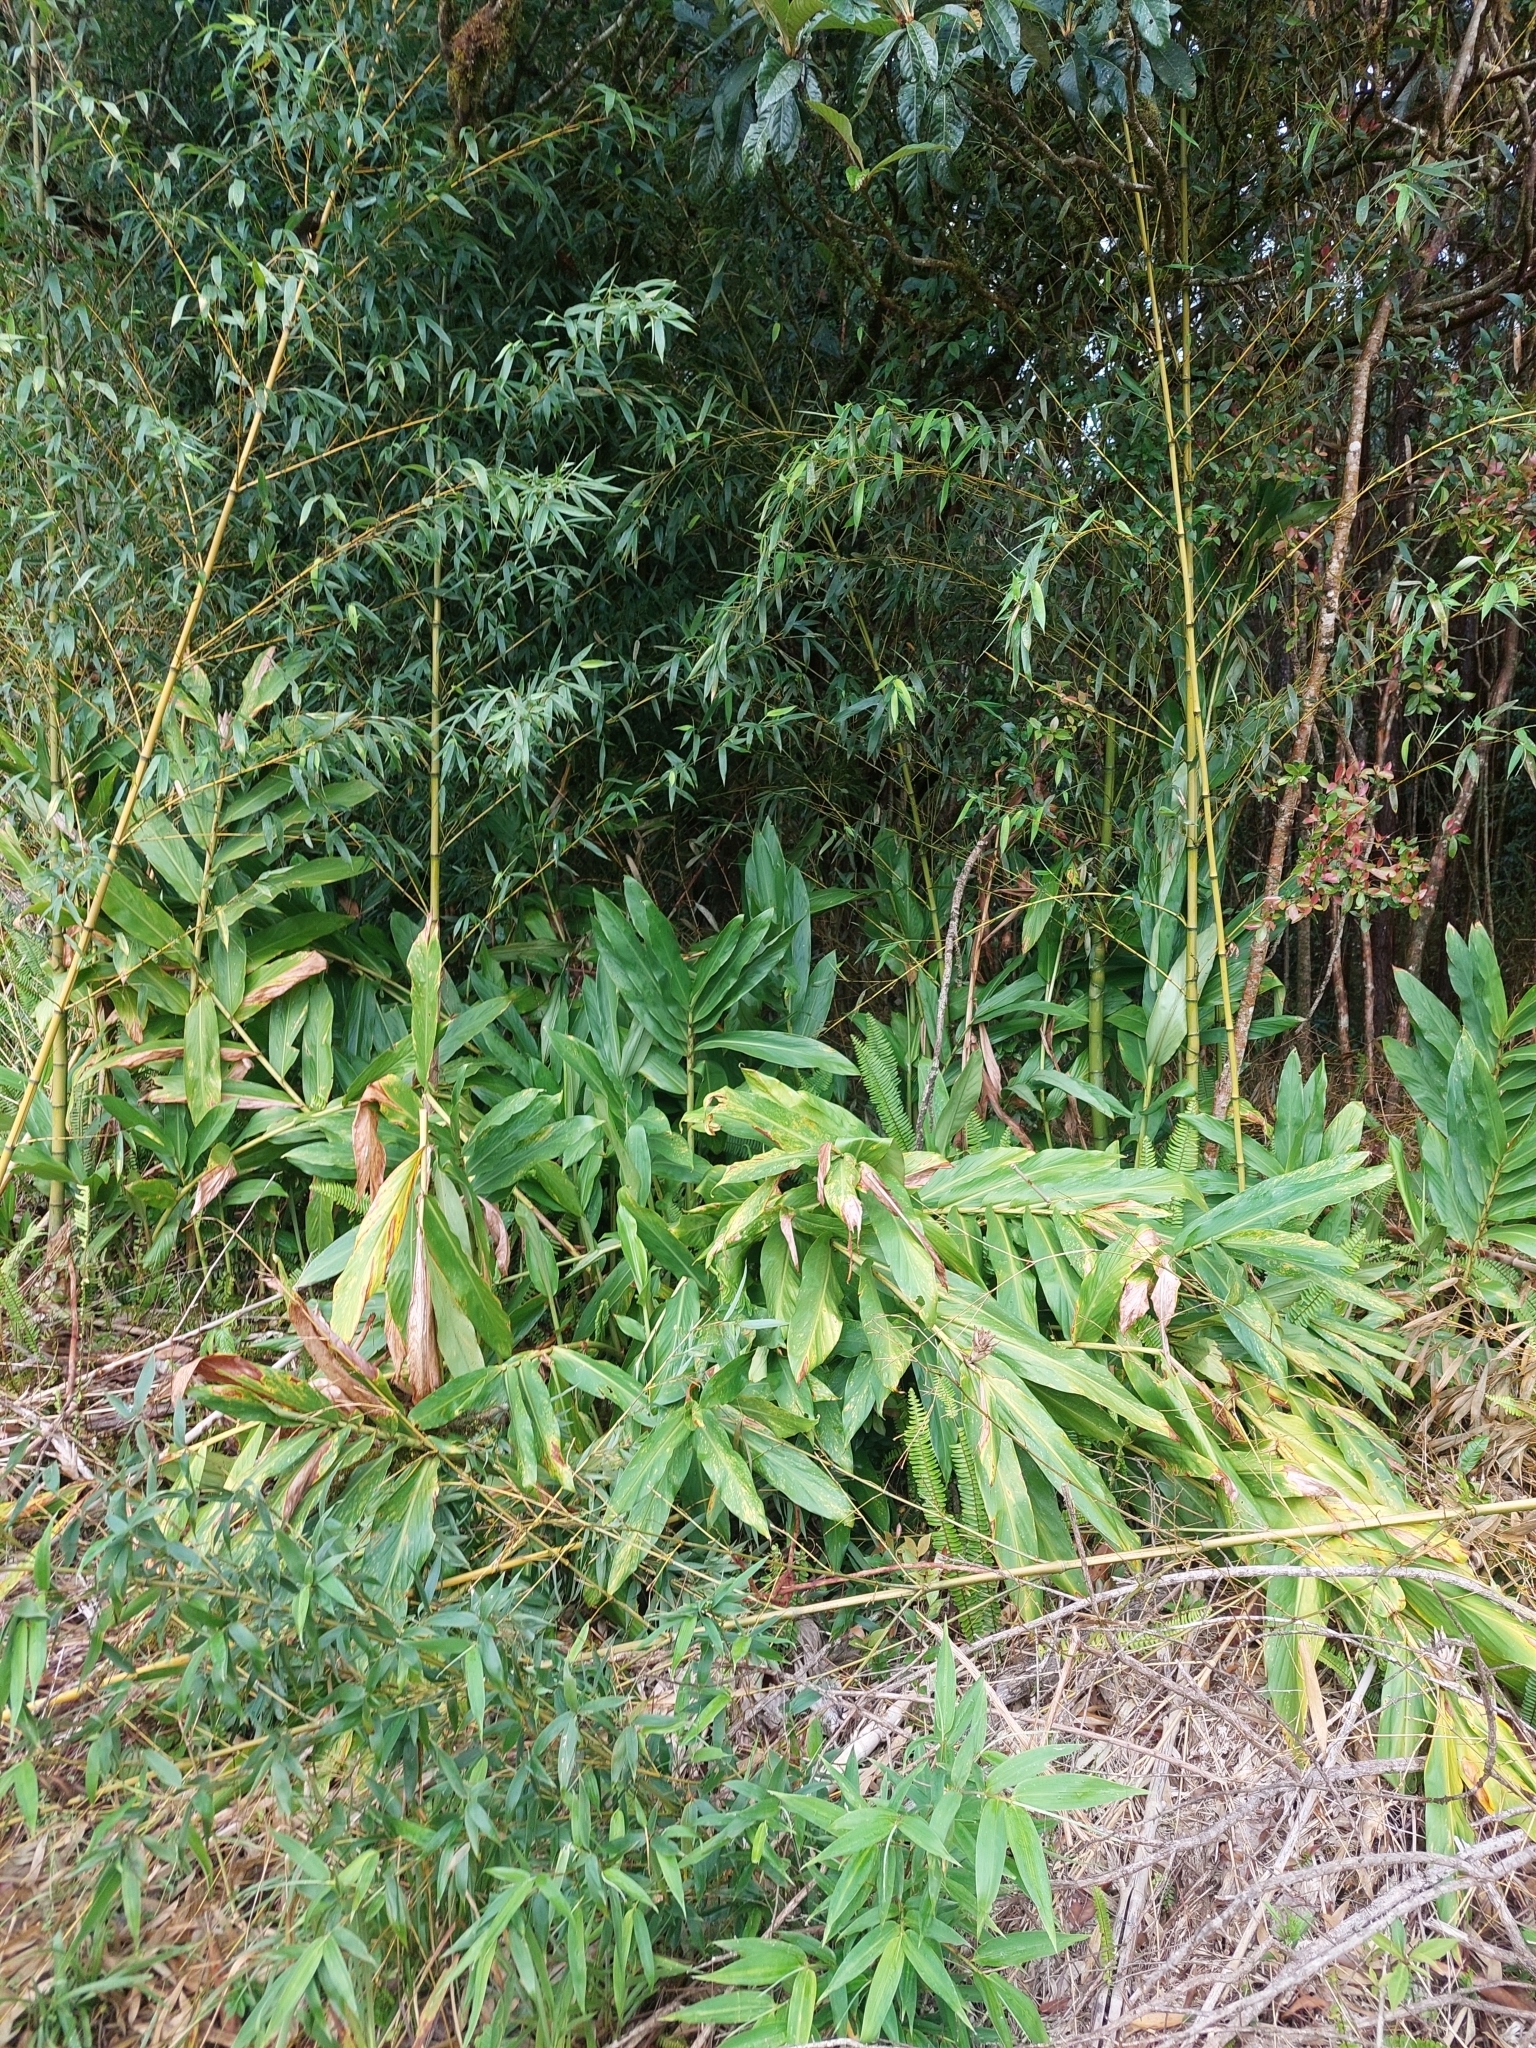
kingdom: Plantae
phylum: Tracheophyta
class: Liliopsida
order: Zingiberales
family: Zingiberaceae
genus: Hedychium
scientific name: Hedychium coronarium
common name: White garland-lily
